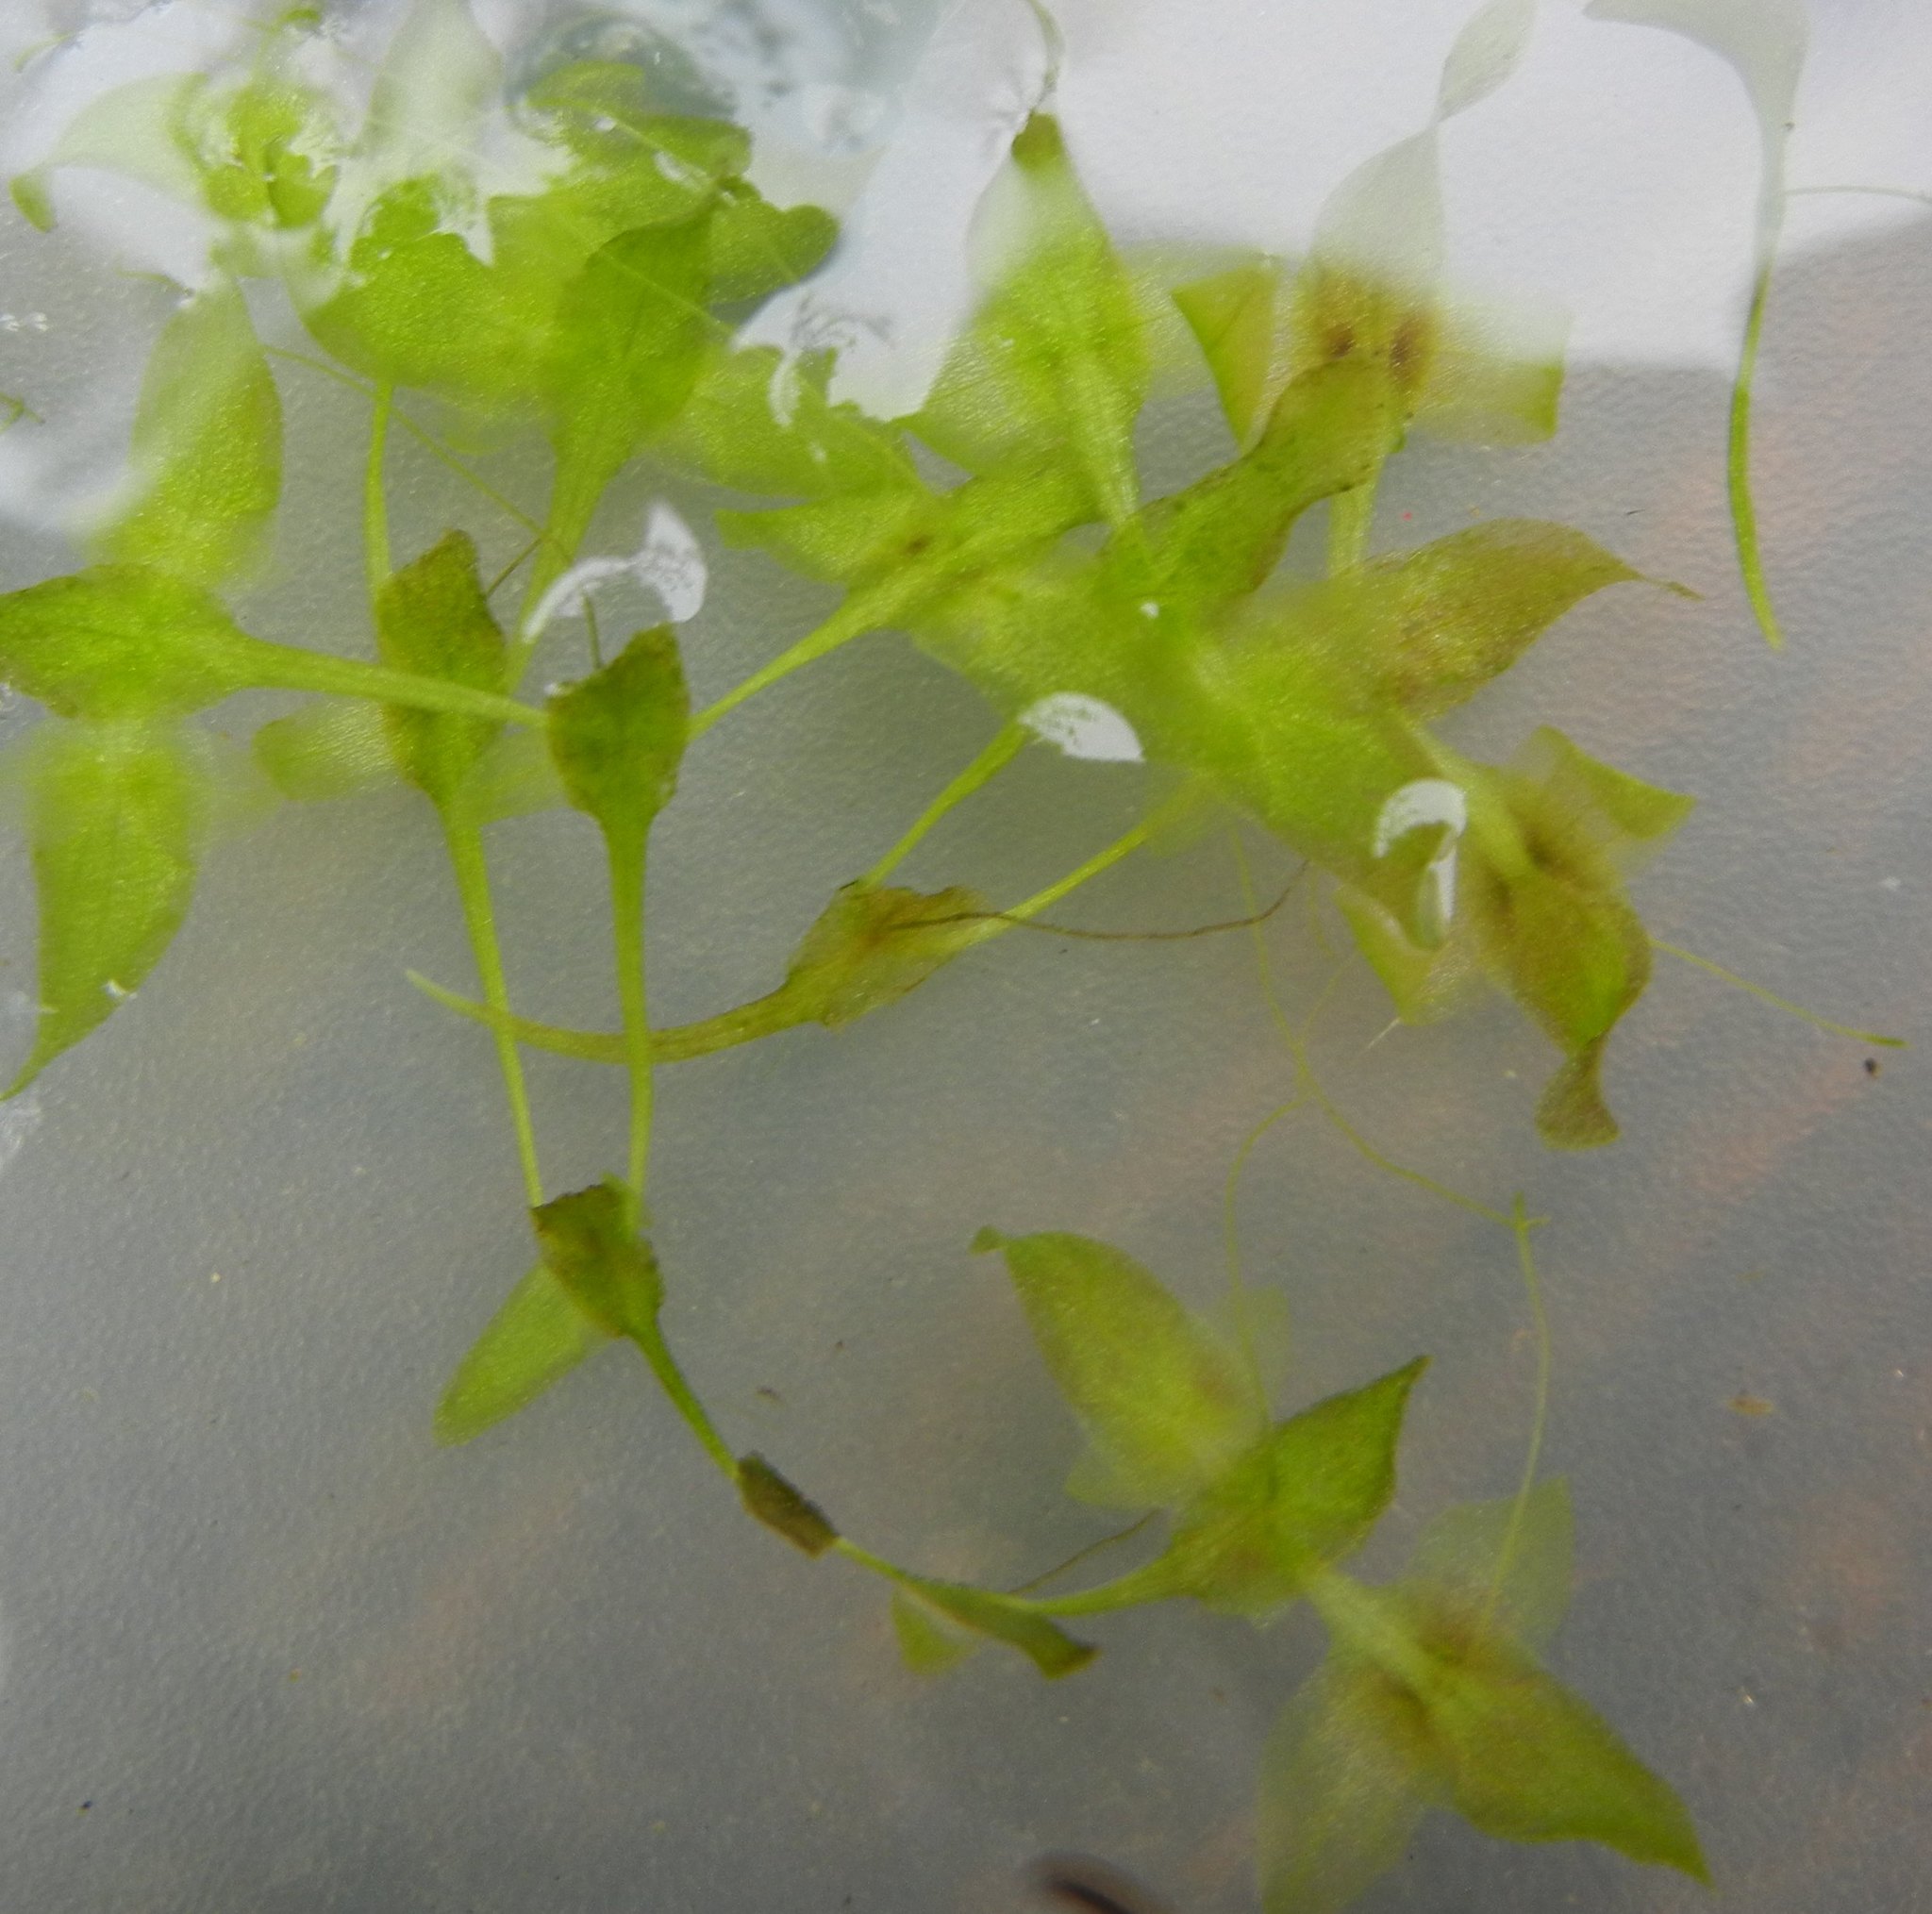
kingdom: Plantae
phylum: Tracheophyta
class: Liliopsida
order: Alismatales
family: Araceae
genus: Lemna
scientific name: Lemna trisulca
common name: Ivy-leaved duckweed
